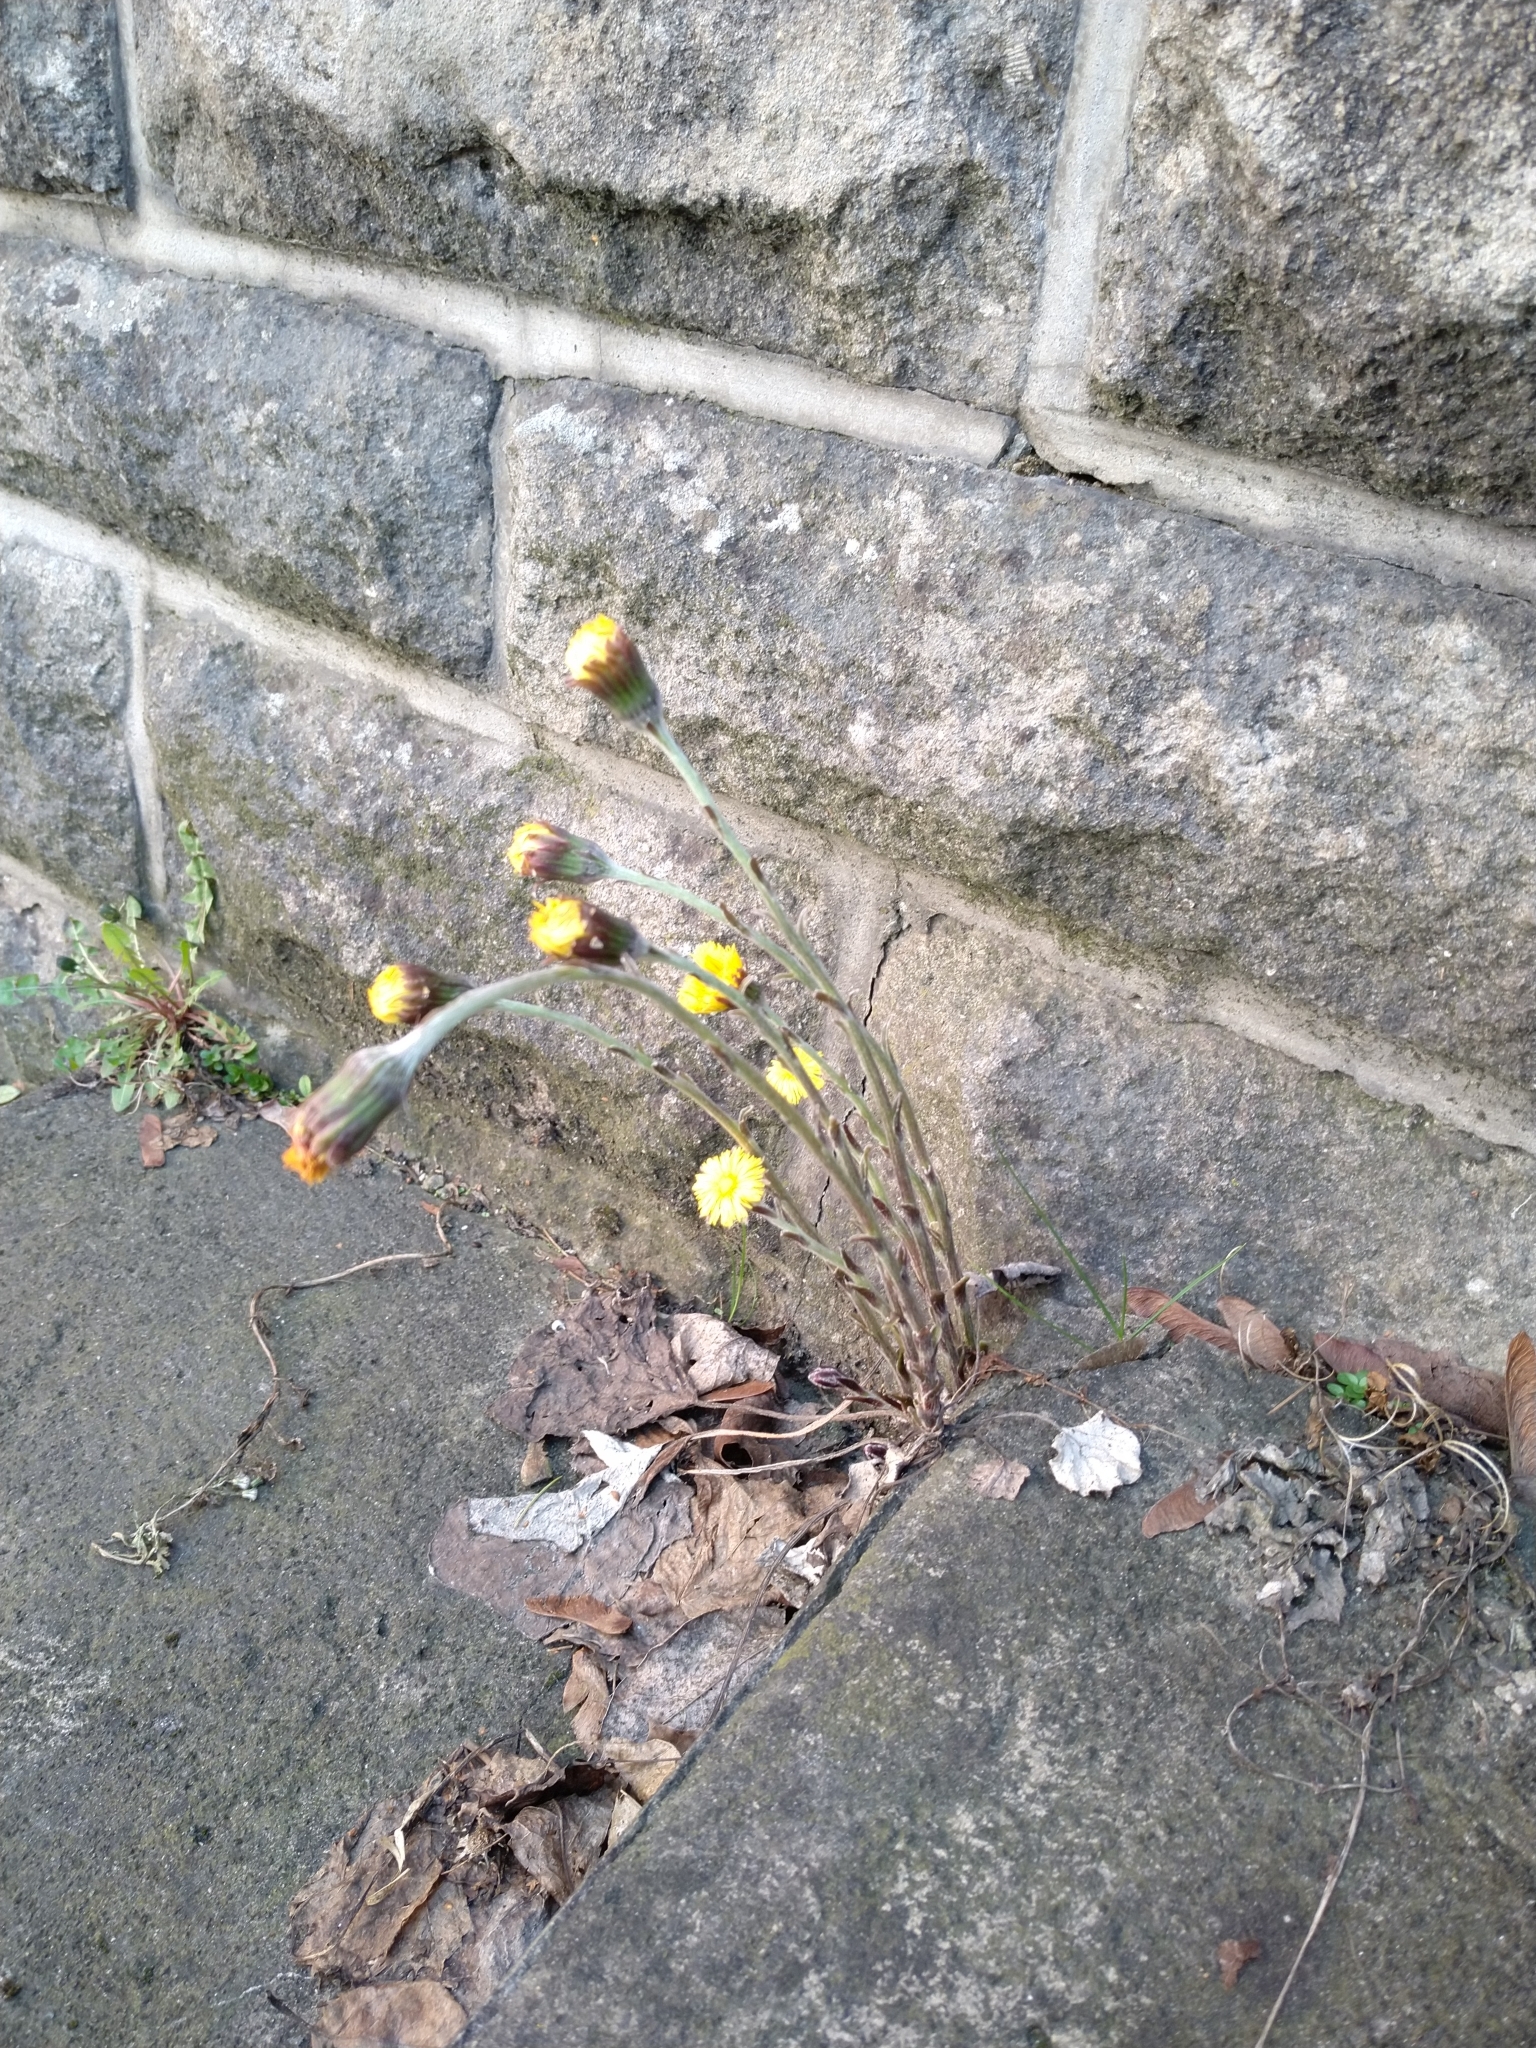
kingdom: Plantae
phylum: Tracheophyta
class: Magnoliopsida
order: Asterales
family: Asteraceae
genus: Tussilago
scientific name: Tussilago farfara
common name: Coltsfoot
